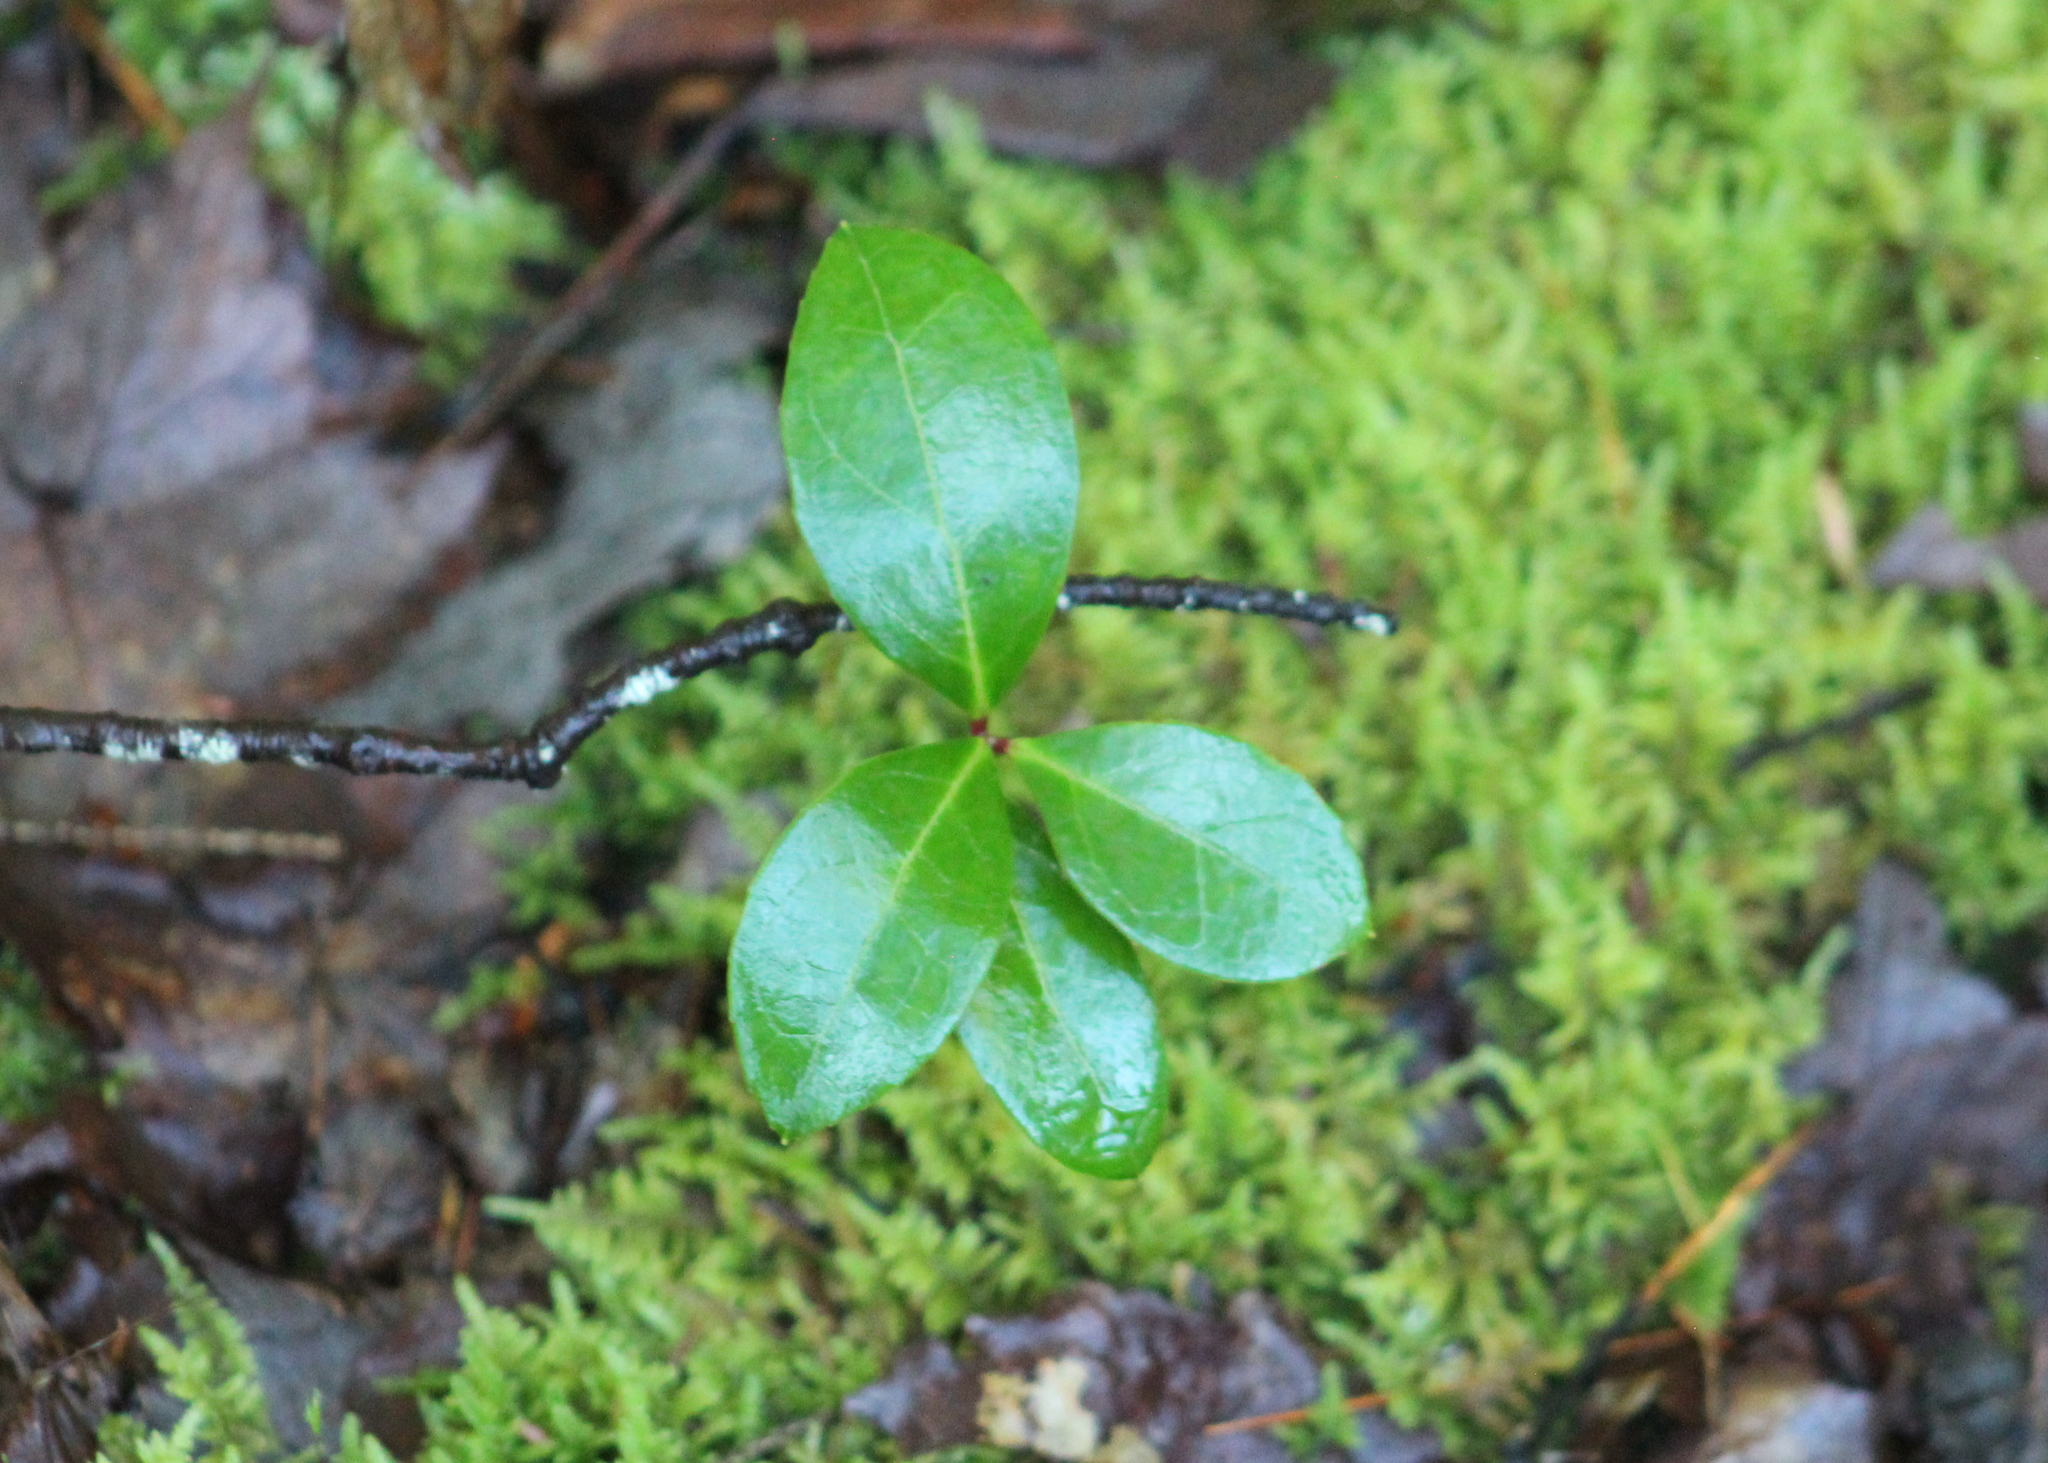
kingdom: Plantae
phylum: Tracheophyta
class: Magnoliopsida
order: Ericales
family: Ericaceae
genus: Gaultheria
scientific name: Gaultheria procumbens
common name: Checkerberry
